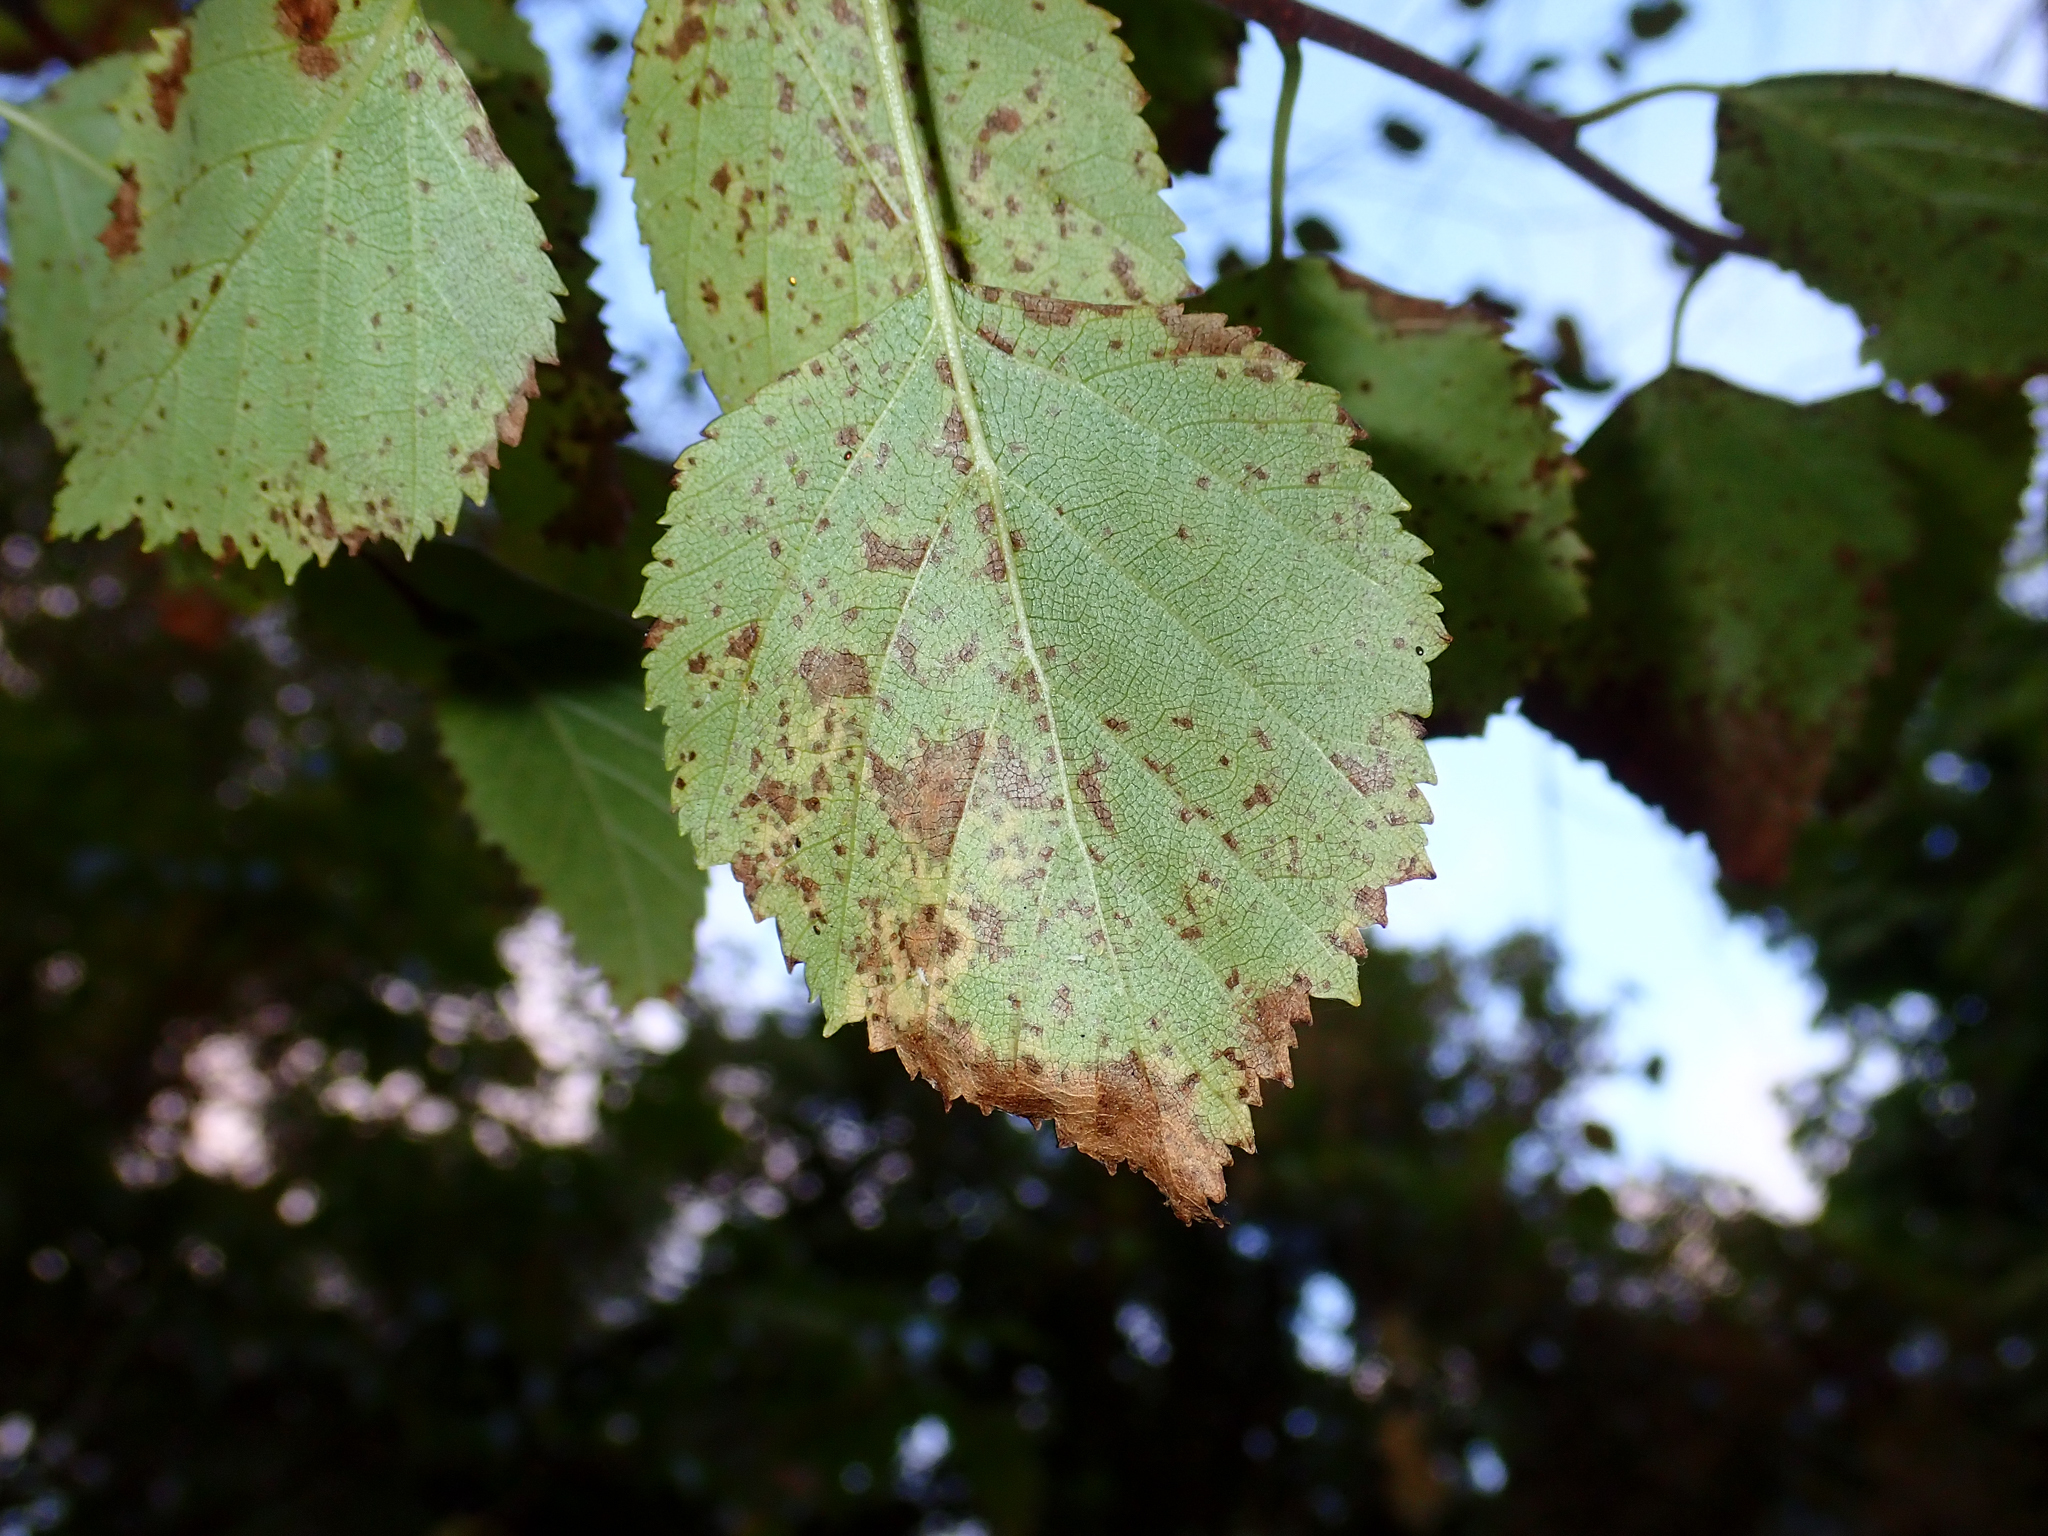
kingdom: Plantae
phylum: Tracheophyta
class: Magnoliopsida
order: Fagales
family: Betulaceae
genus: Betula
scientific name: Betula pendula
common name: Silver birch
